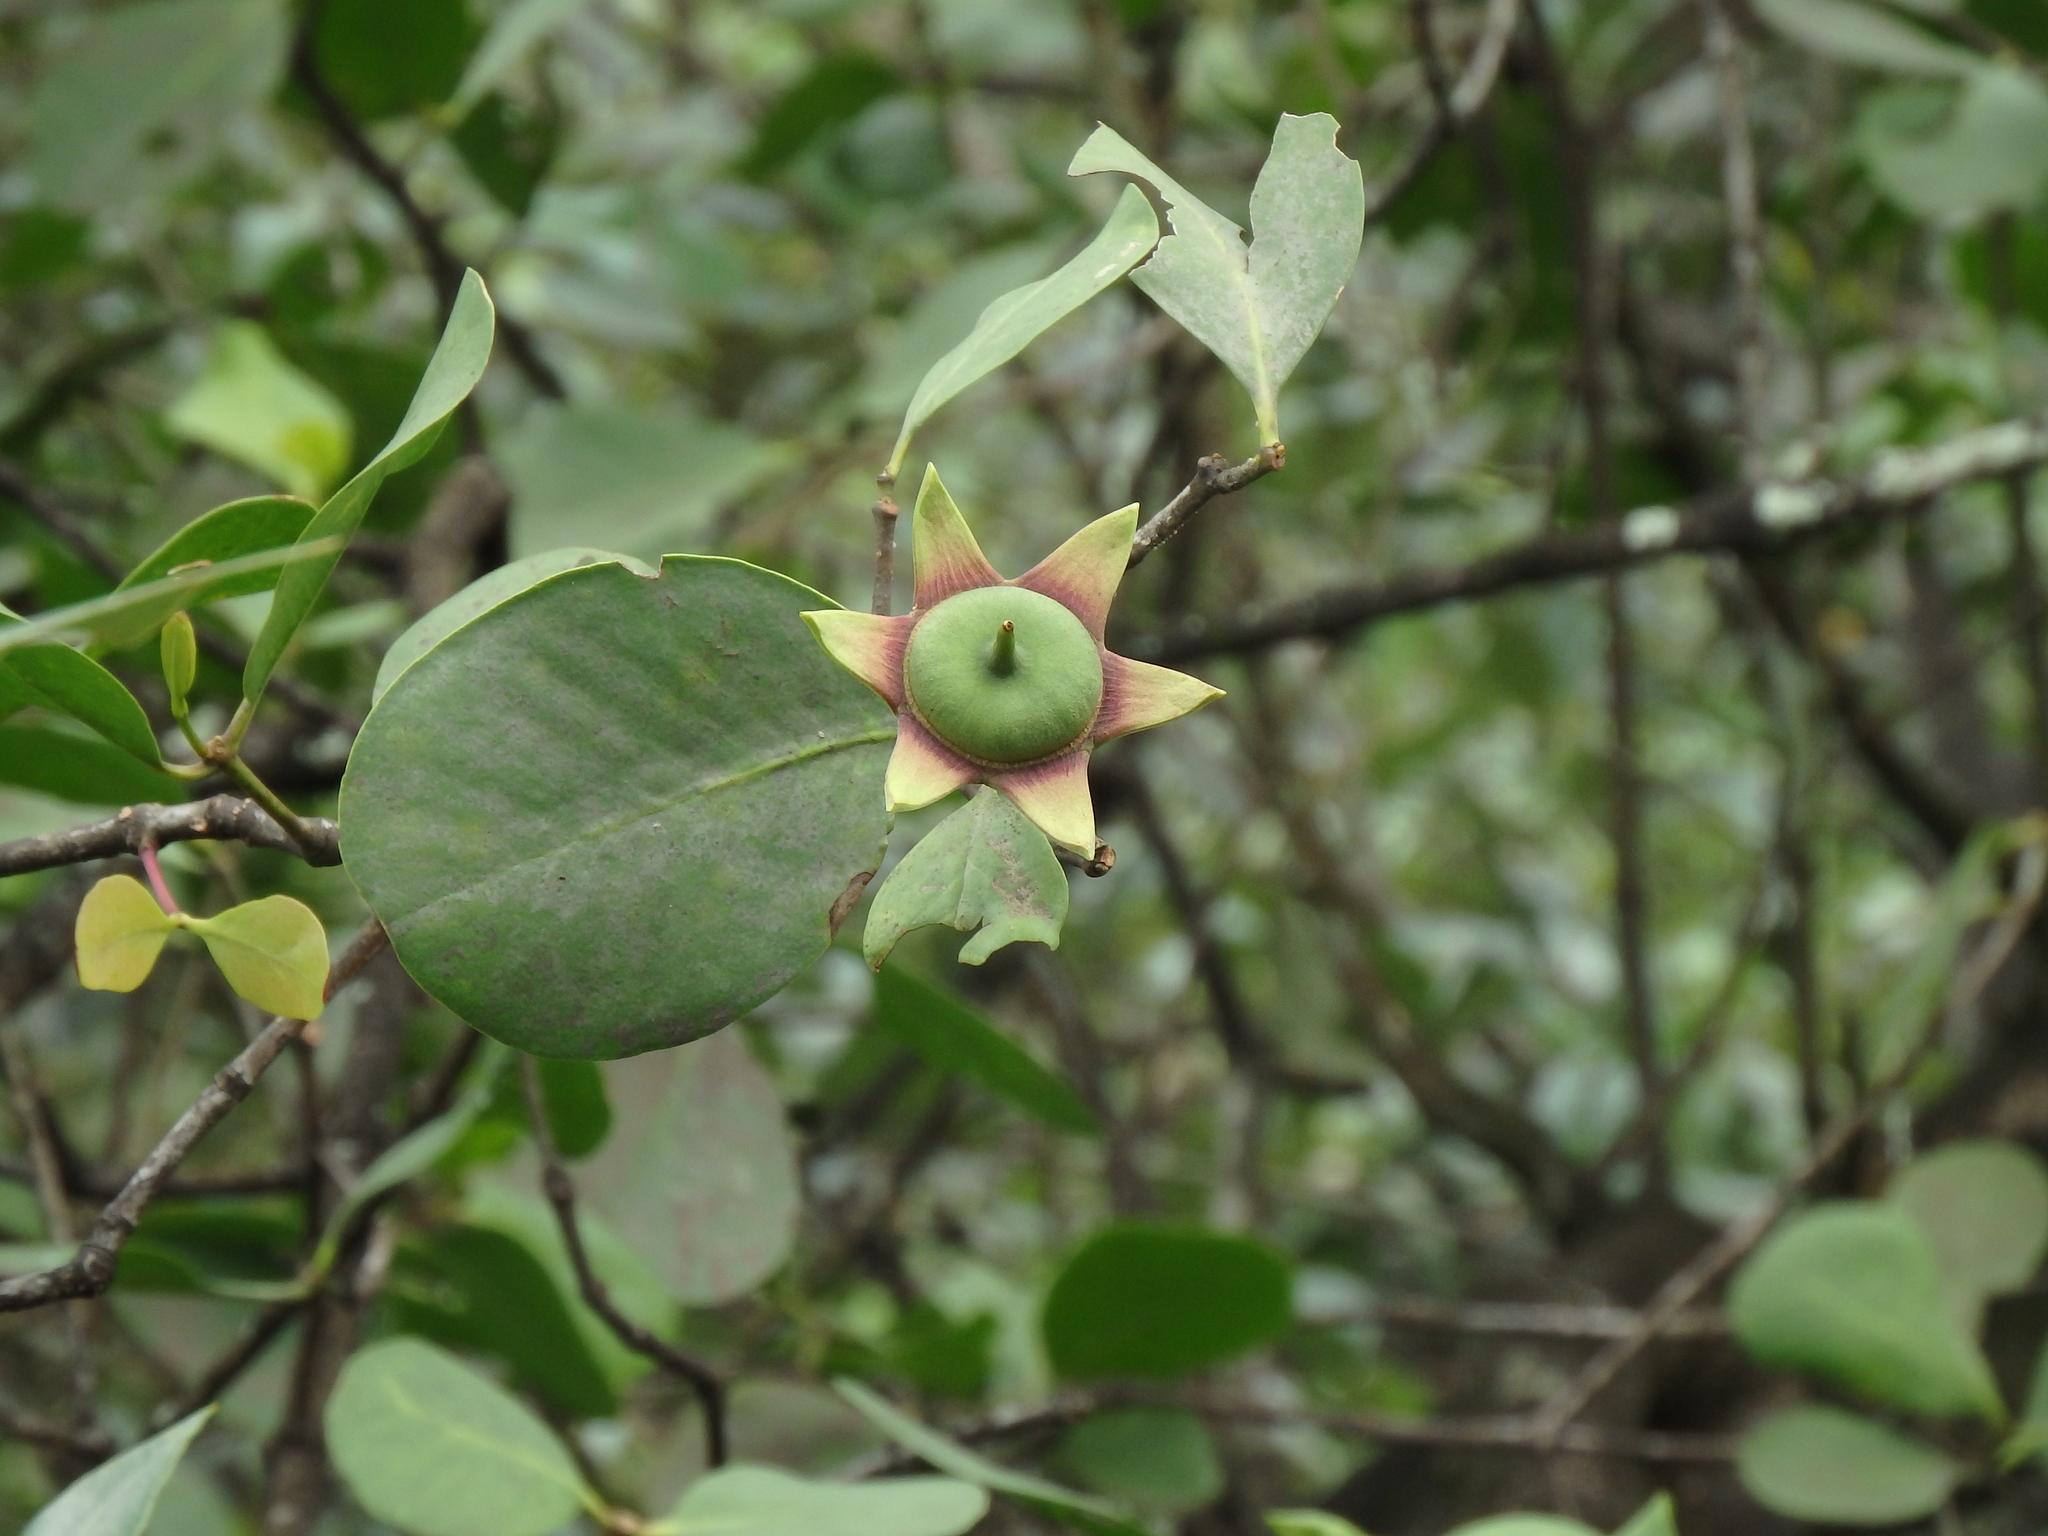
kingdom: Plantae
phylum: Tracheophyta
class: Magnoliopsida
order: Myrtales
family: Lythraceae
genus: Sonneratia
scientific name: Sonneratia alba
